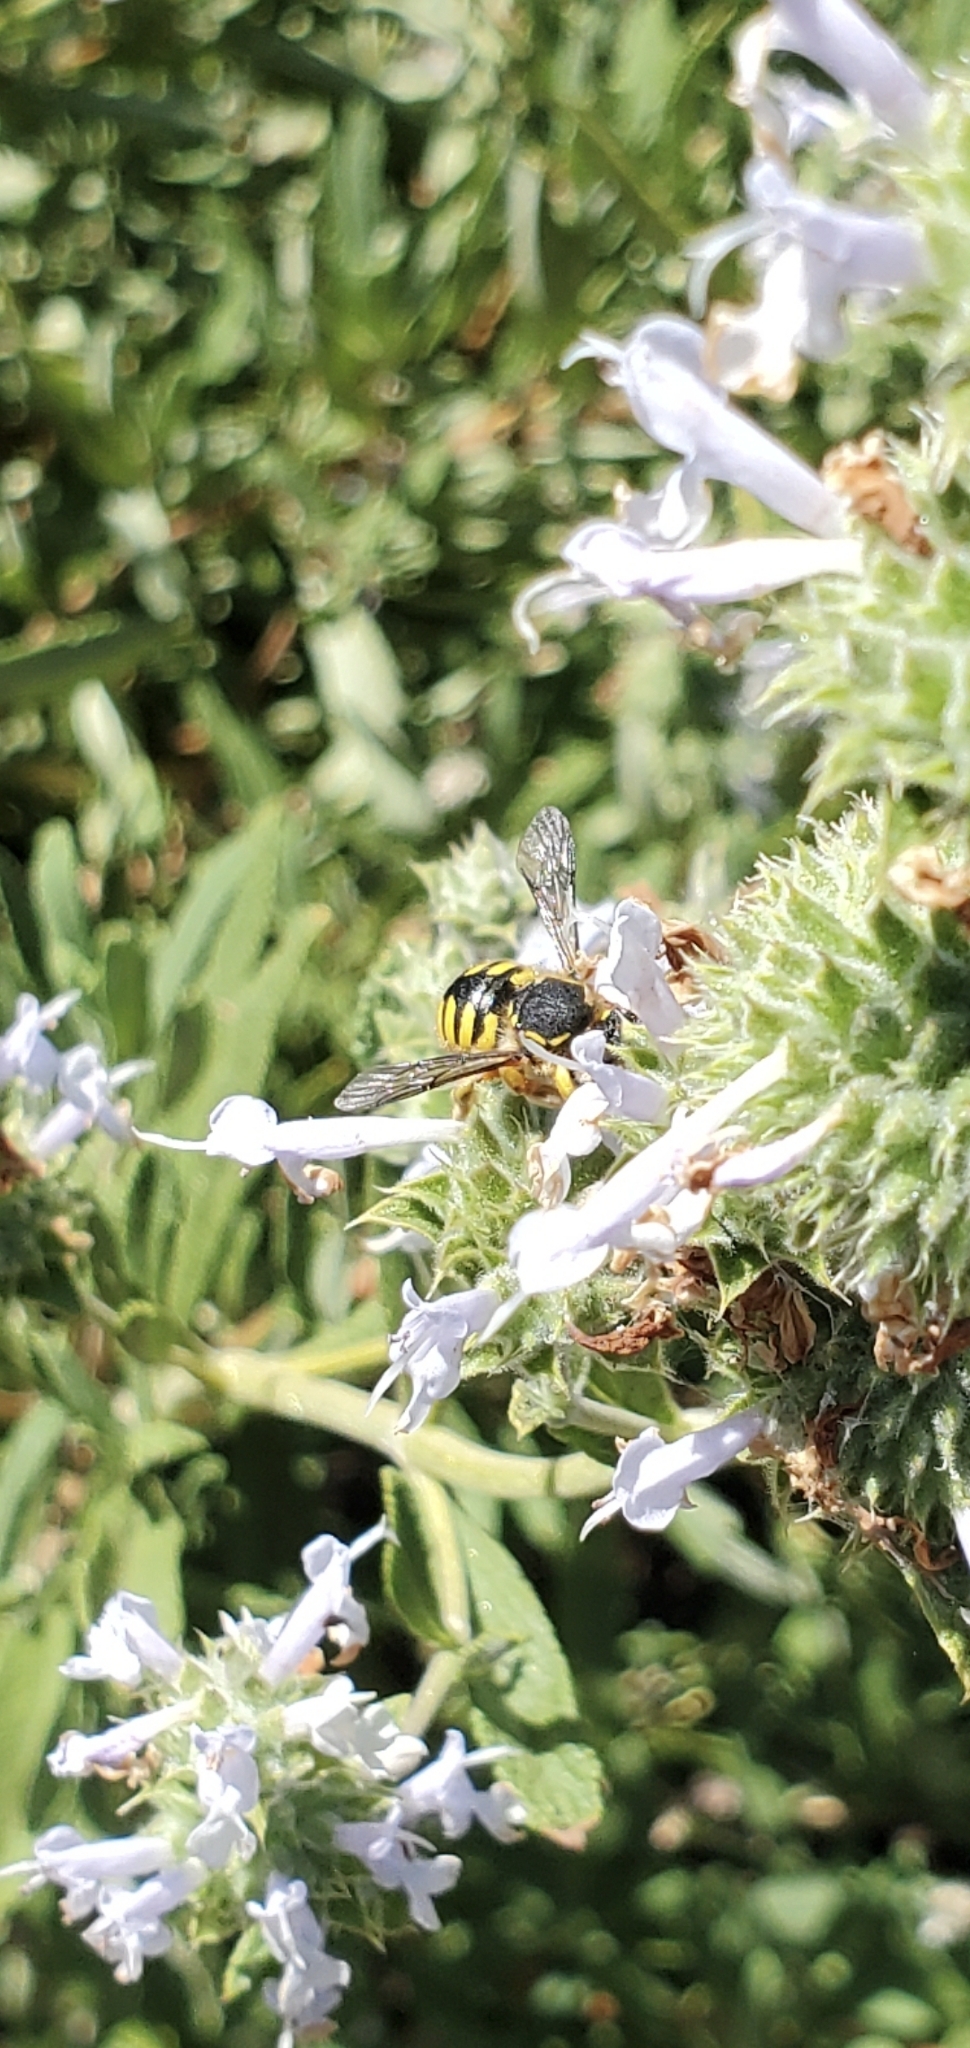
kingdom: Animalia
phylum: Arthropoda
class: Insecta
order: Hymenoptera
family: Megachilidae
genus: Anthidium
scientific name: Anthidium manicatum
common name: Wool carder bee
